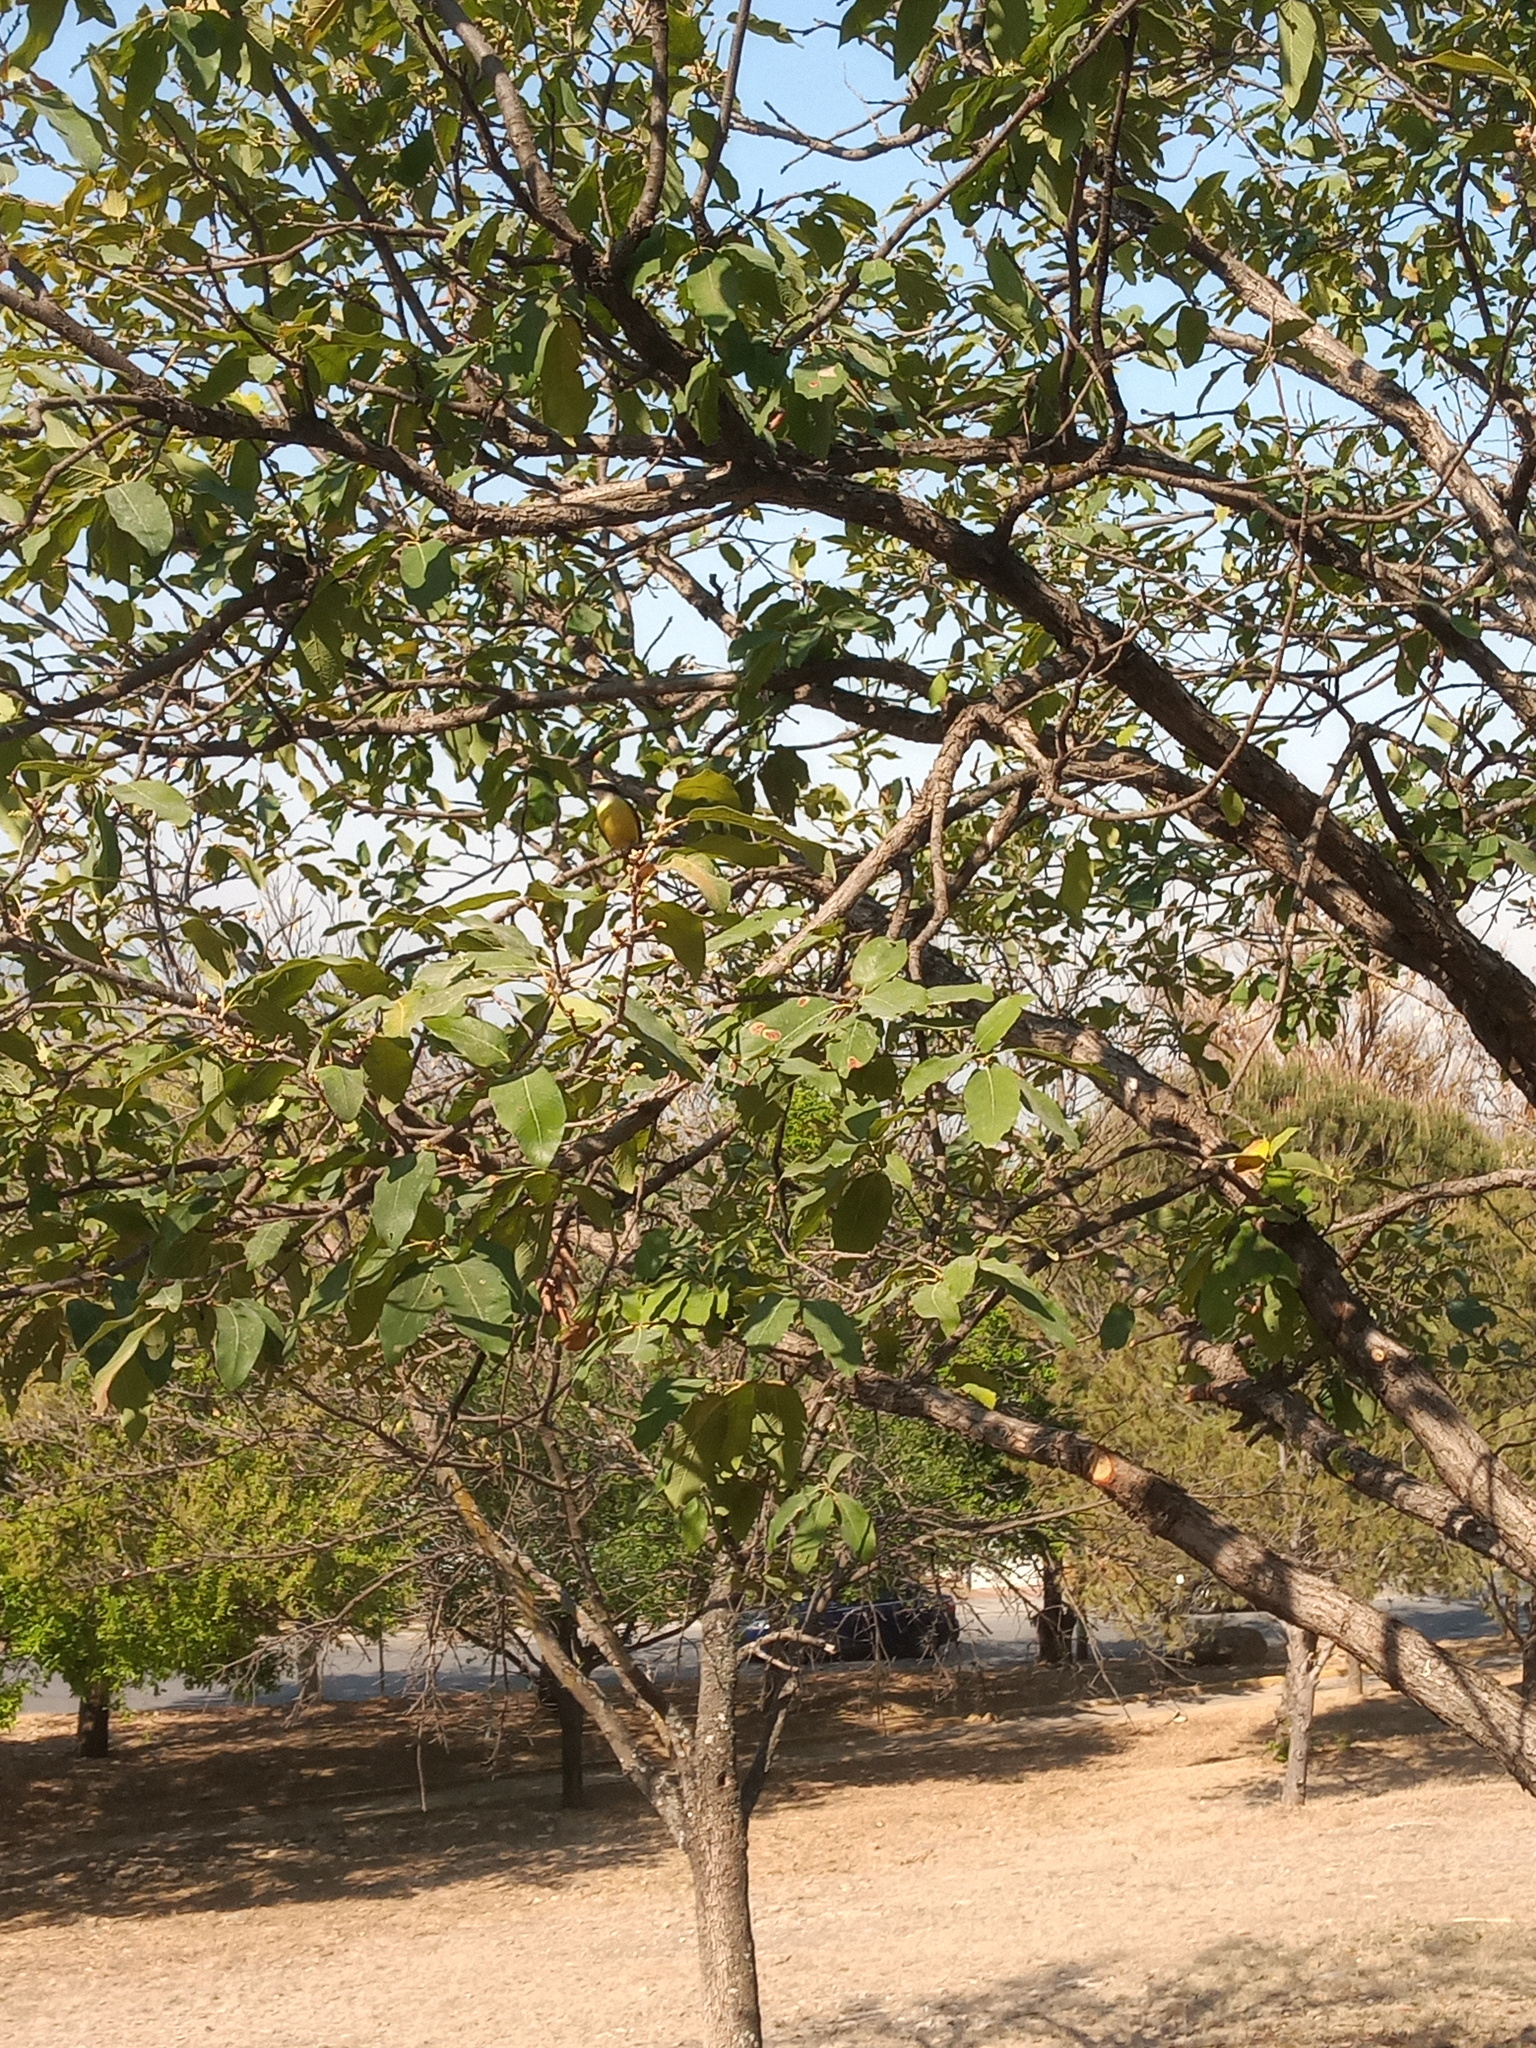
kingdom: Animalia
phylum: Chordata
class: Aves
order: Passeriformes
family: Tyrannidae
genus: Pitangus
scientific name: Pitangus sulphuratus
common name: Great kiskadee
